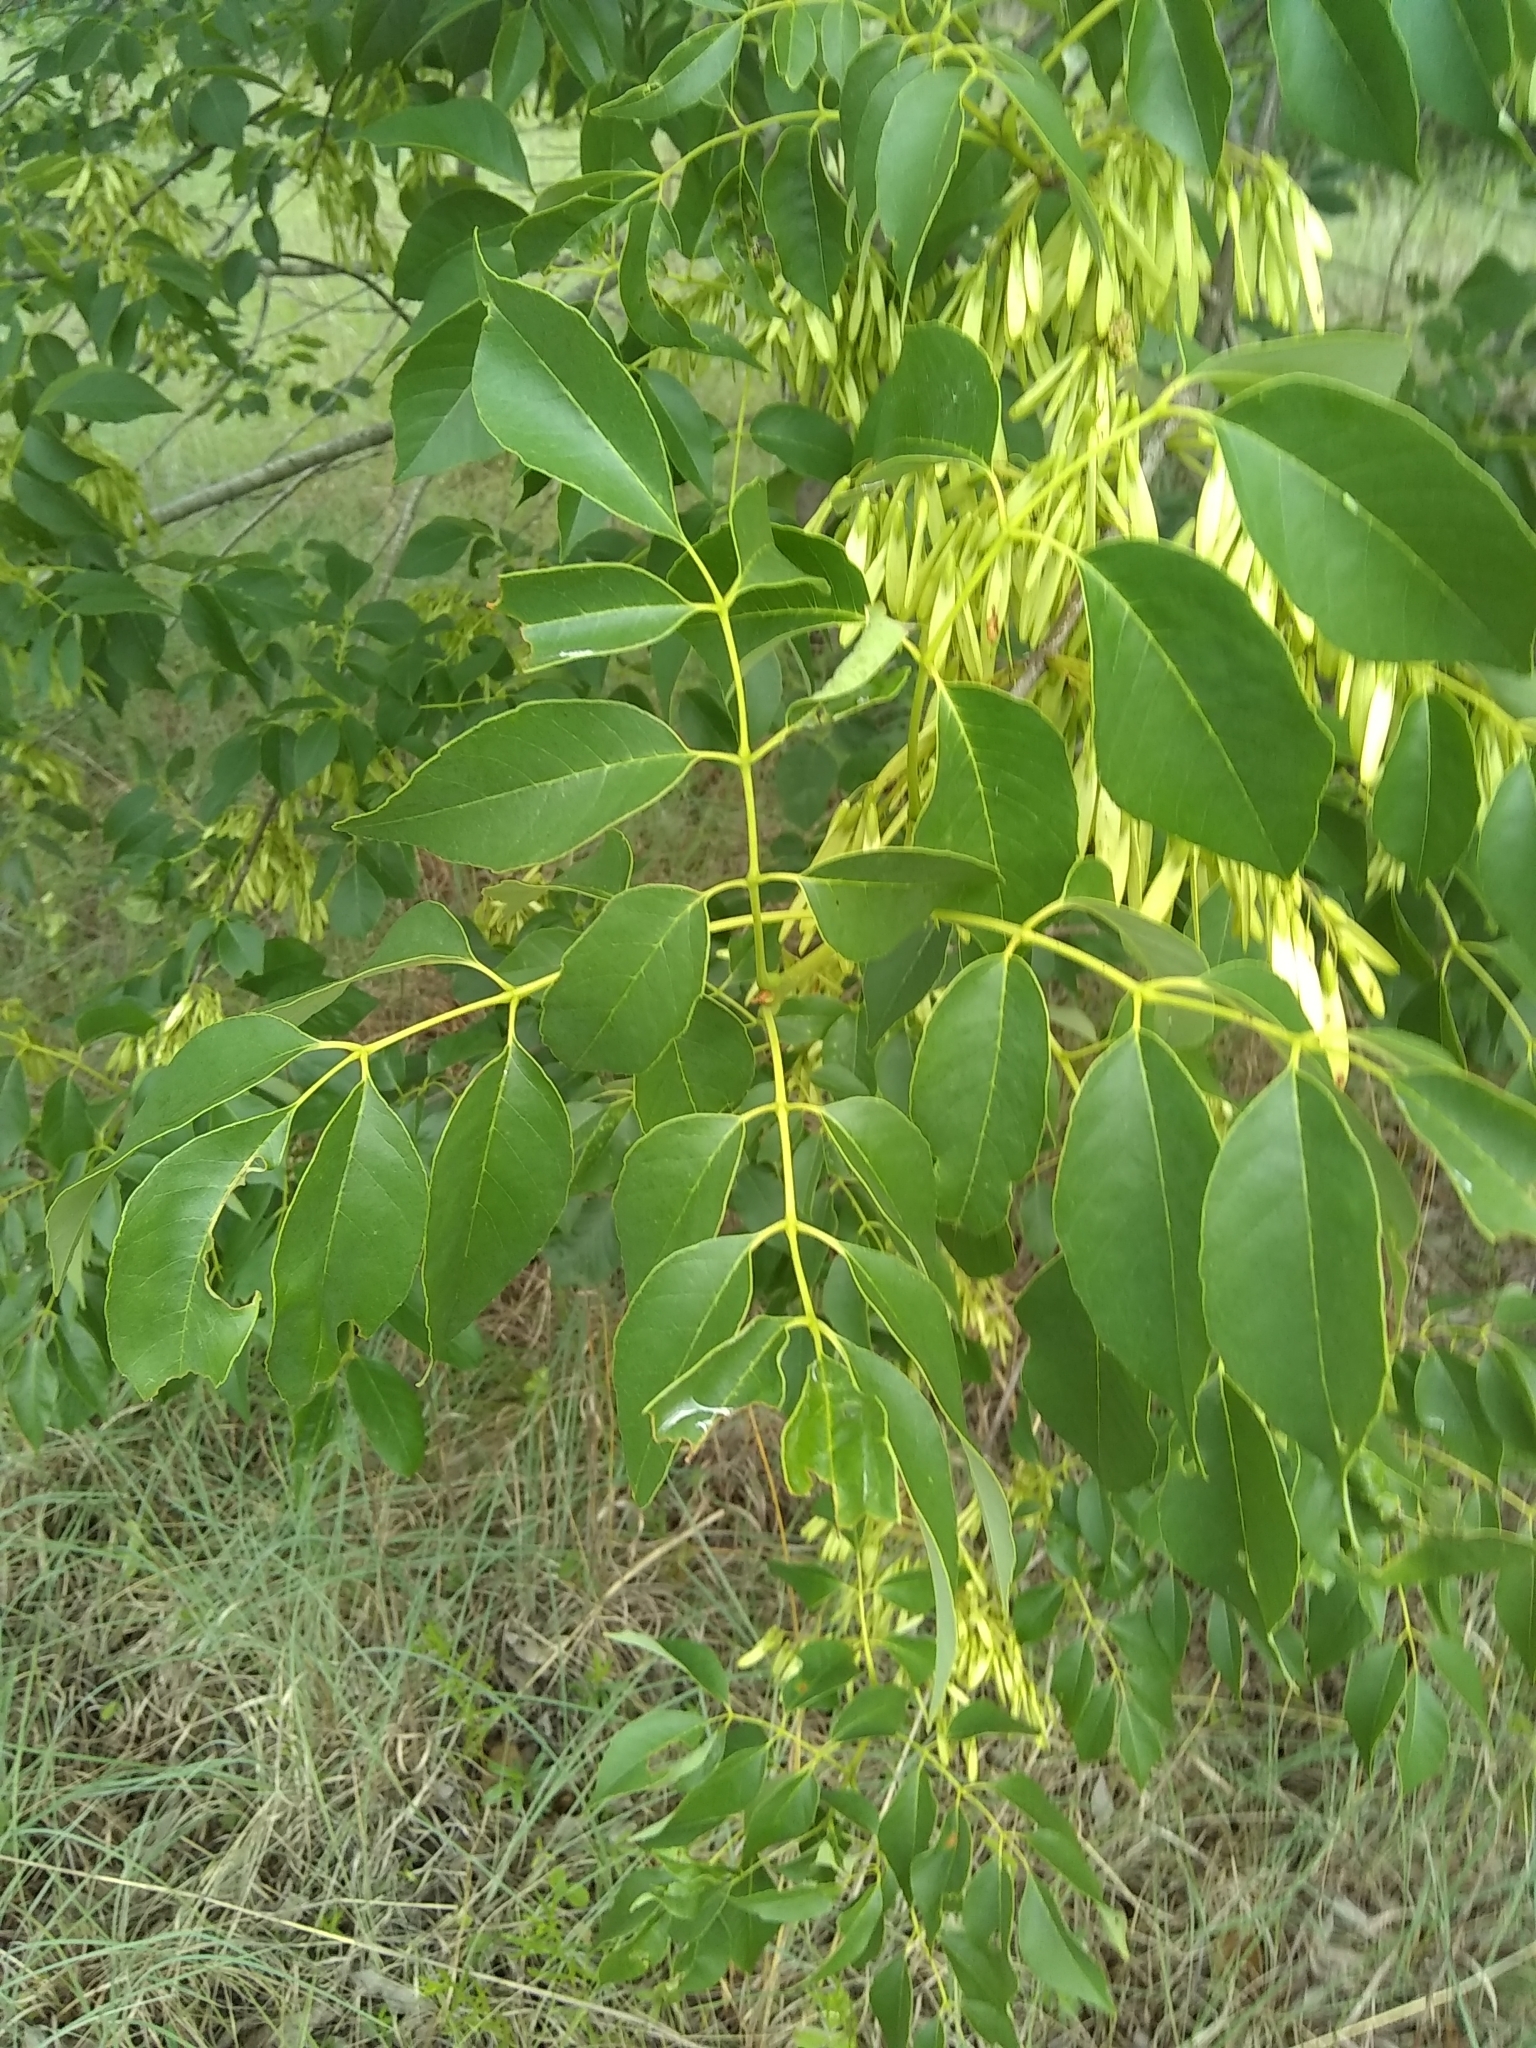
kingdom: Plantae
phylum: Tracheophyta
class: Magnoliopsida
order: Lamiales
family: Oleaceae
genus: Fraxinus
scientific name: Fraxinus pennsylvanica
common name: Green ash
